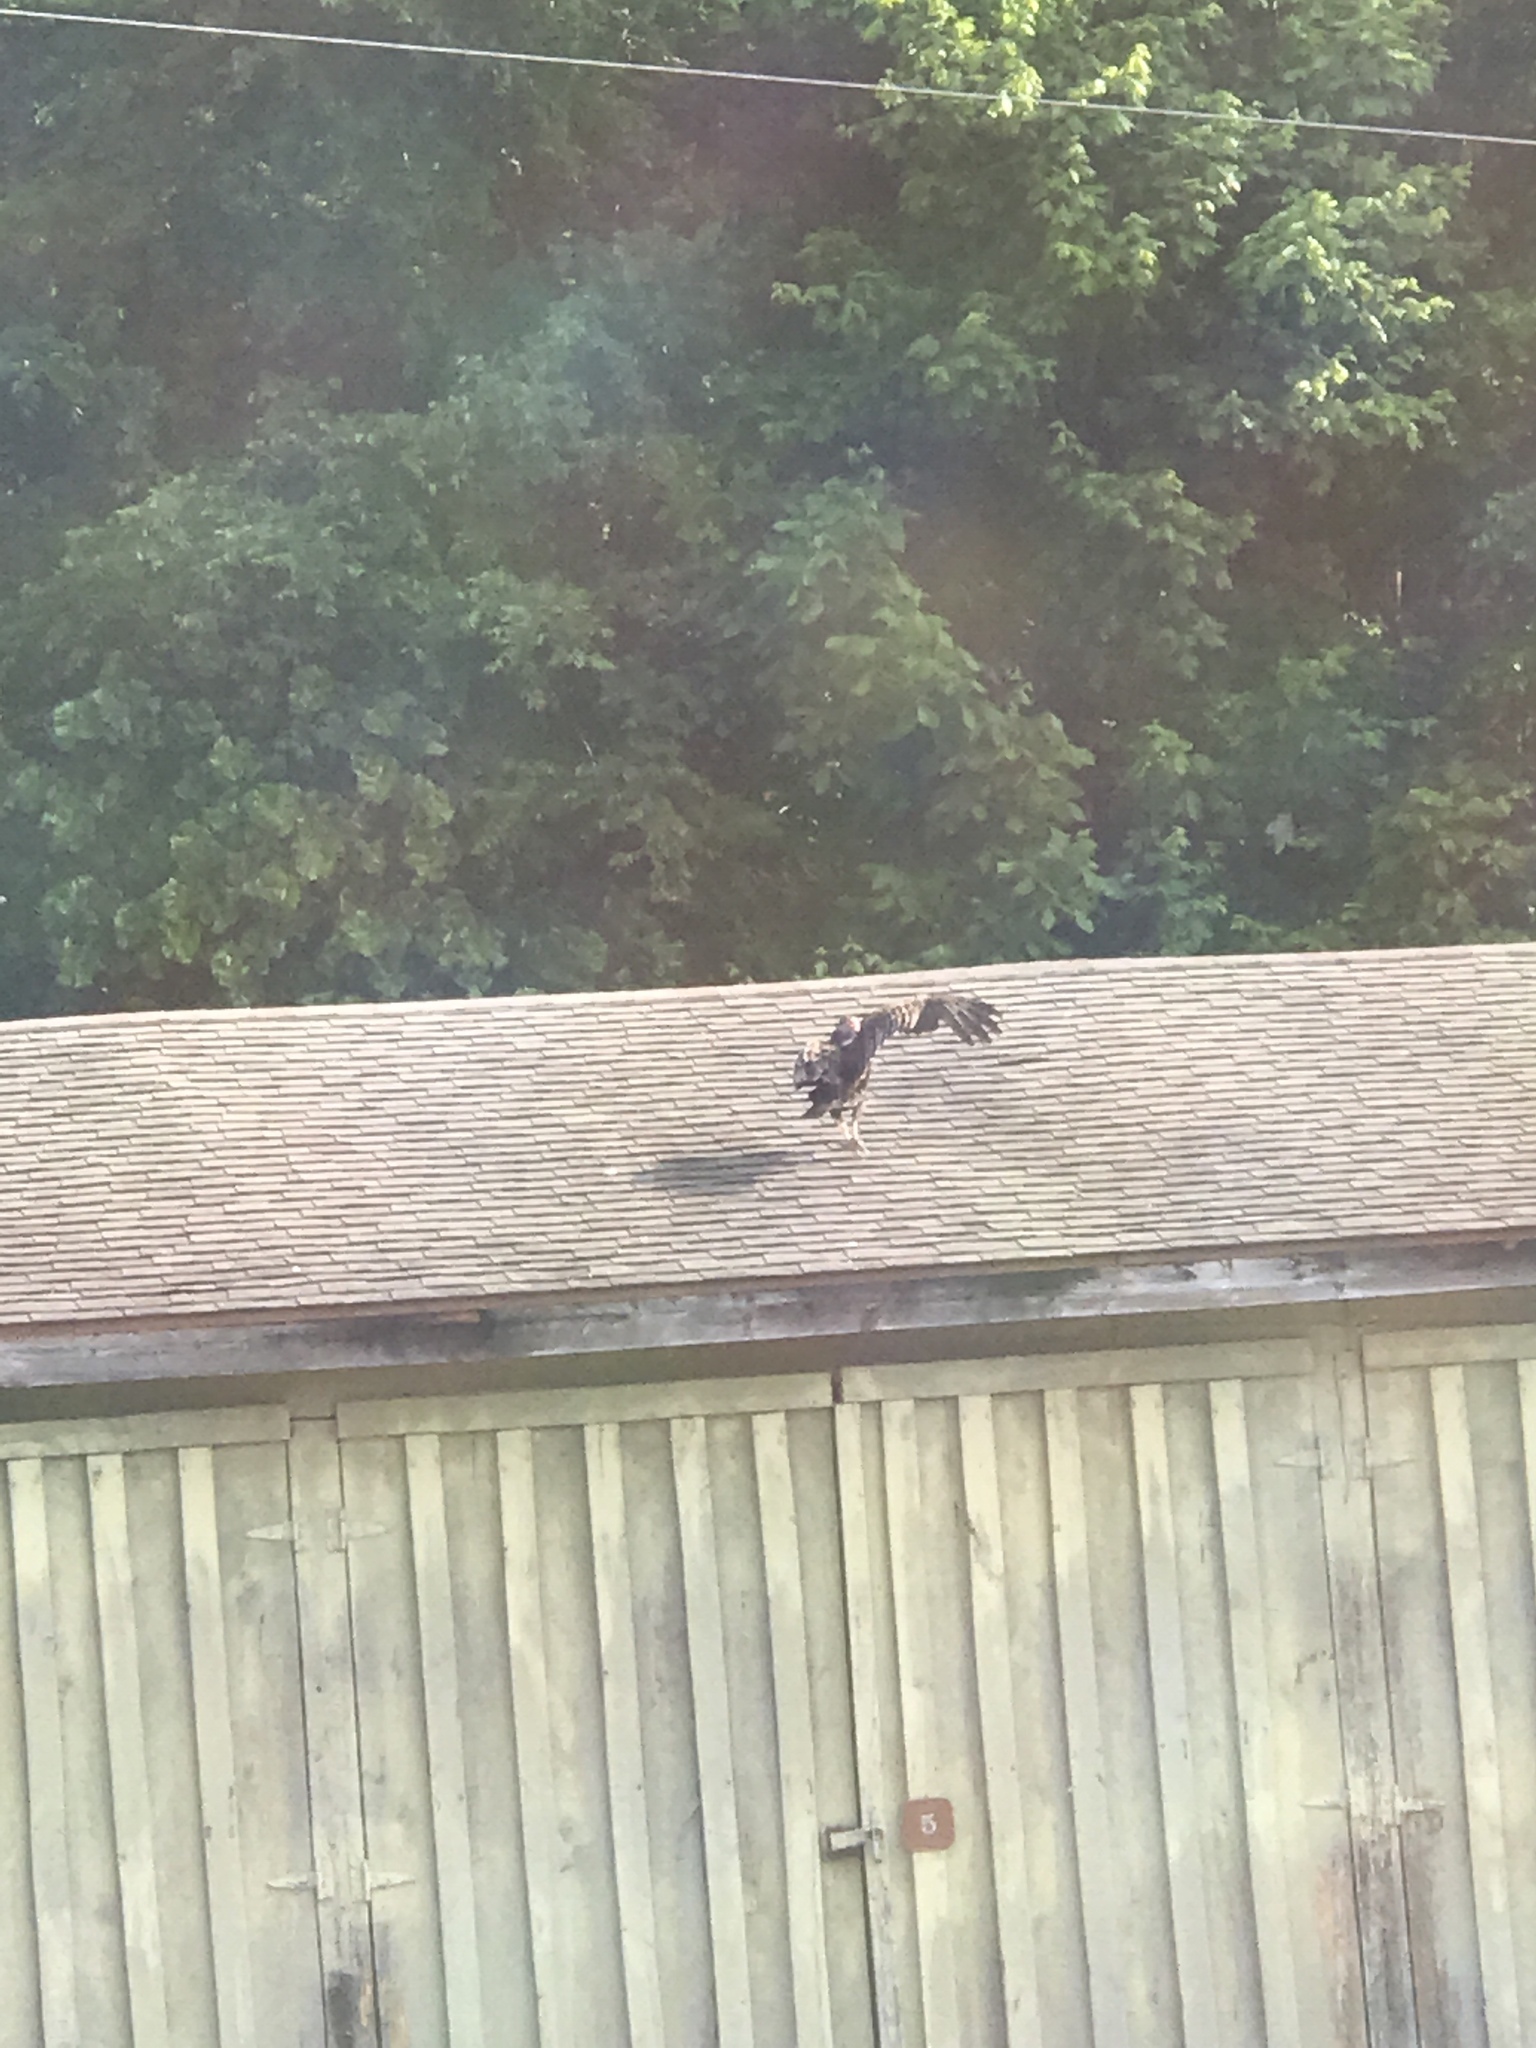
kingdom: Animalia
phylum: Chordata
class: Aves
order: Accipitriformes
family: Cathartidae
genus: Cathartes
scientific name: Cathartes aura
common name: Turkey vulture
